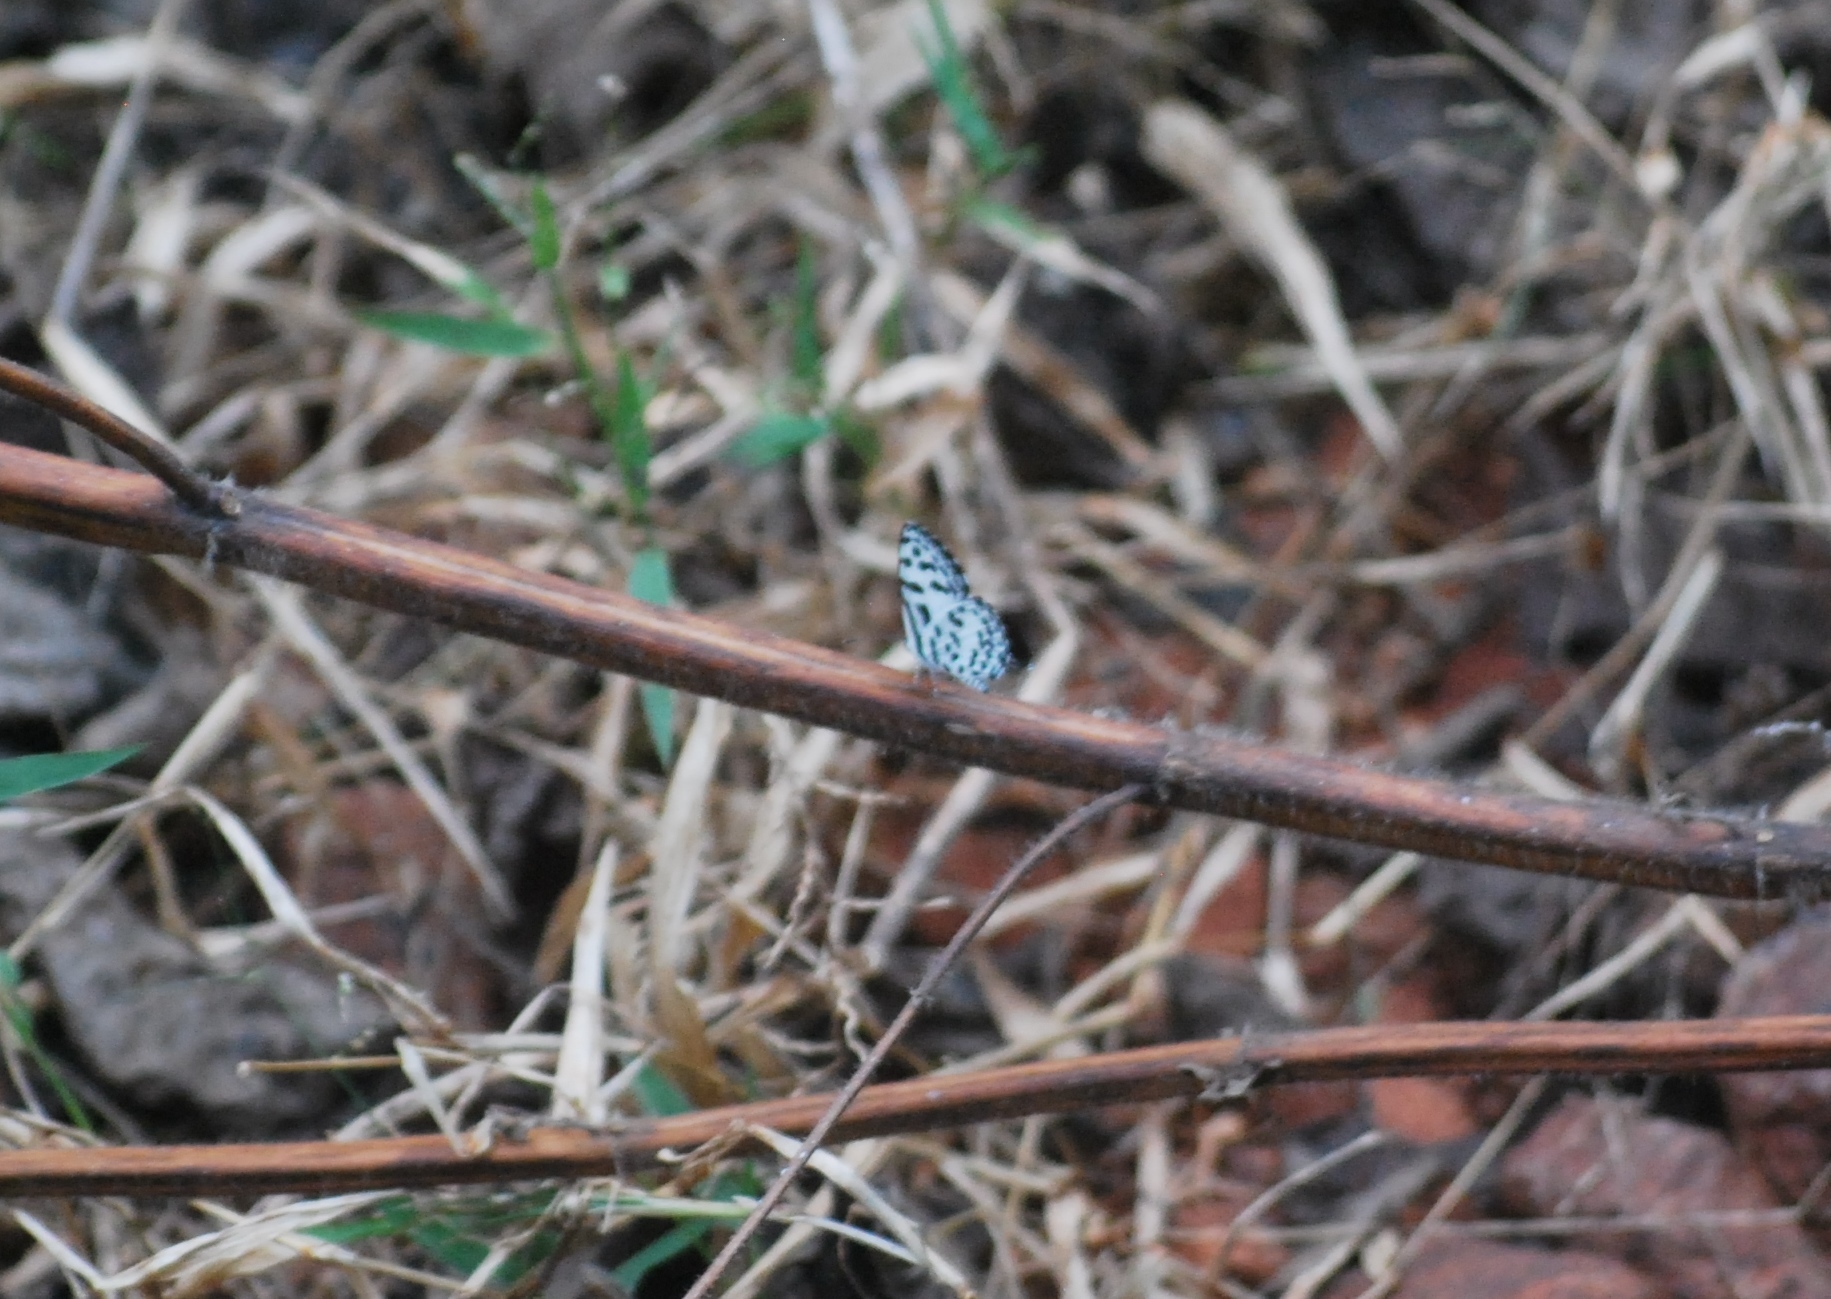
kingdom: Animalia
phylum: Arthropoda
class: Insecta
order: Lepidoptera
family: Lycaenidae
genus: Castalius
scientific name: Castalius rosimon
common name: Common pierrot
